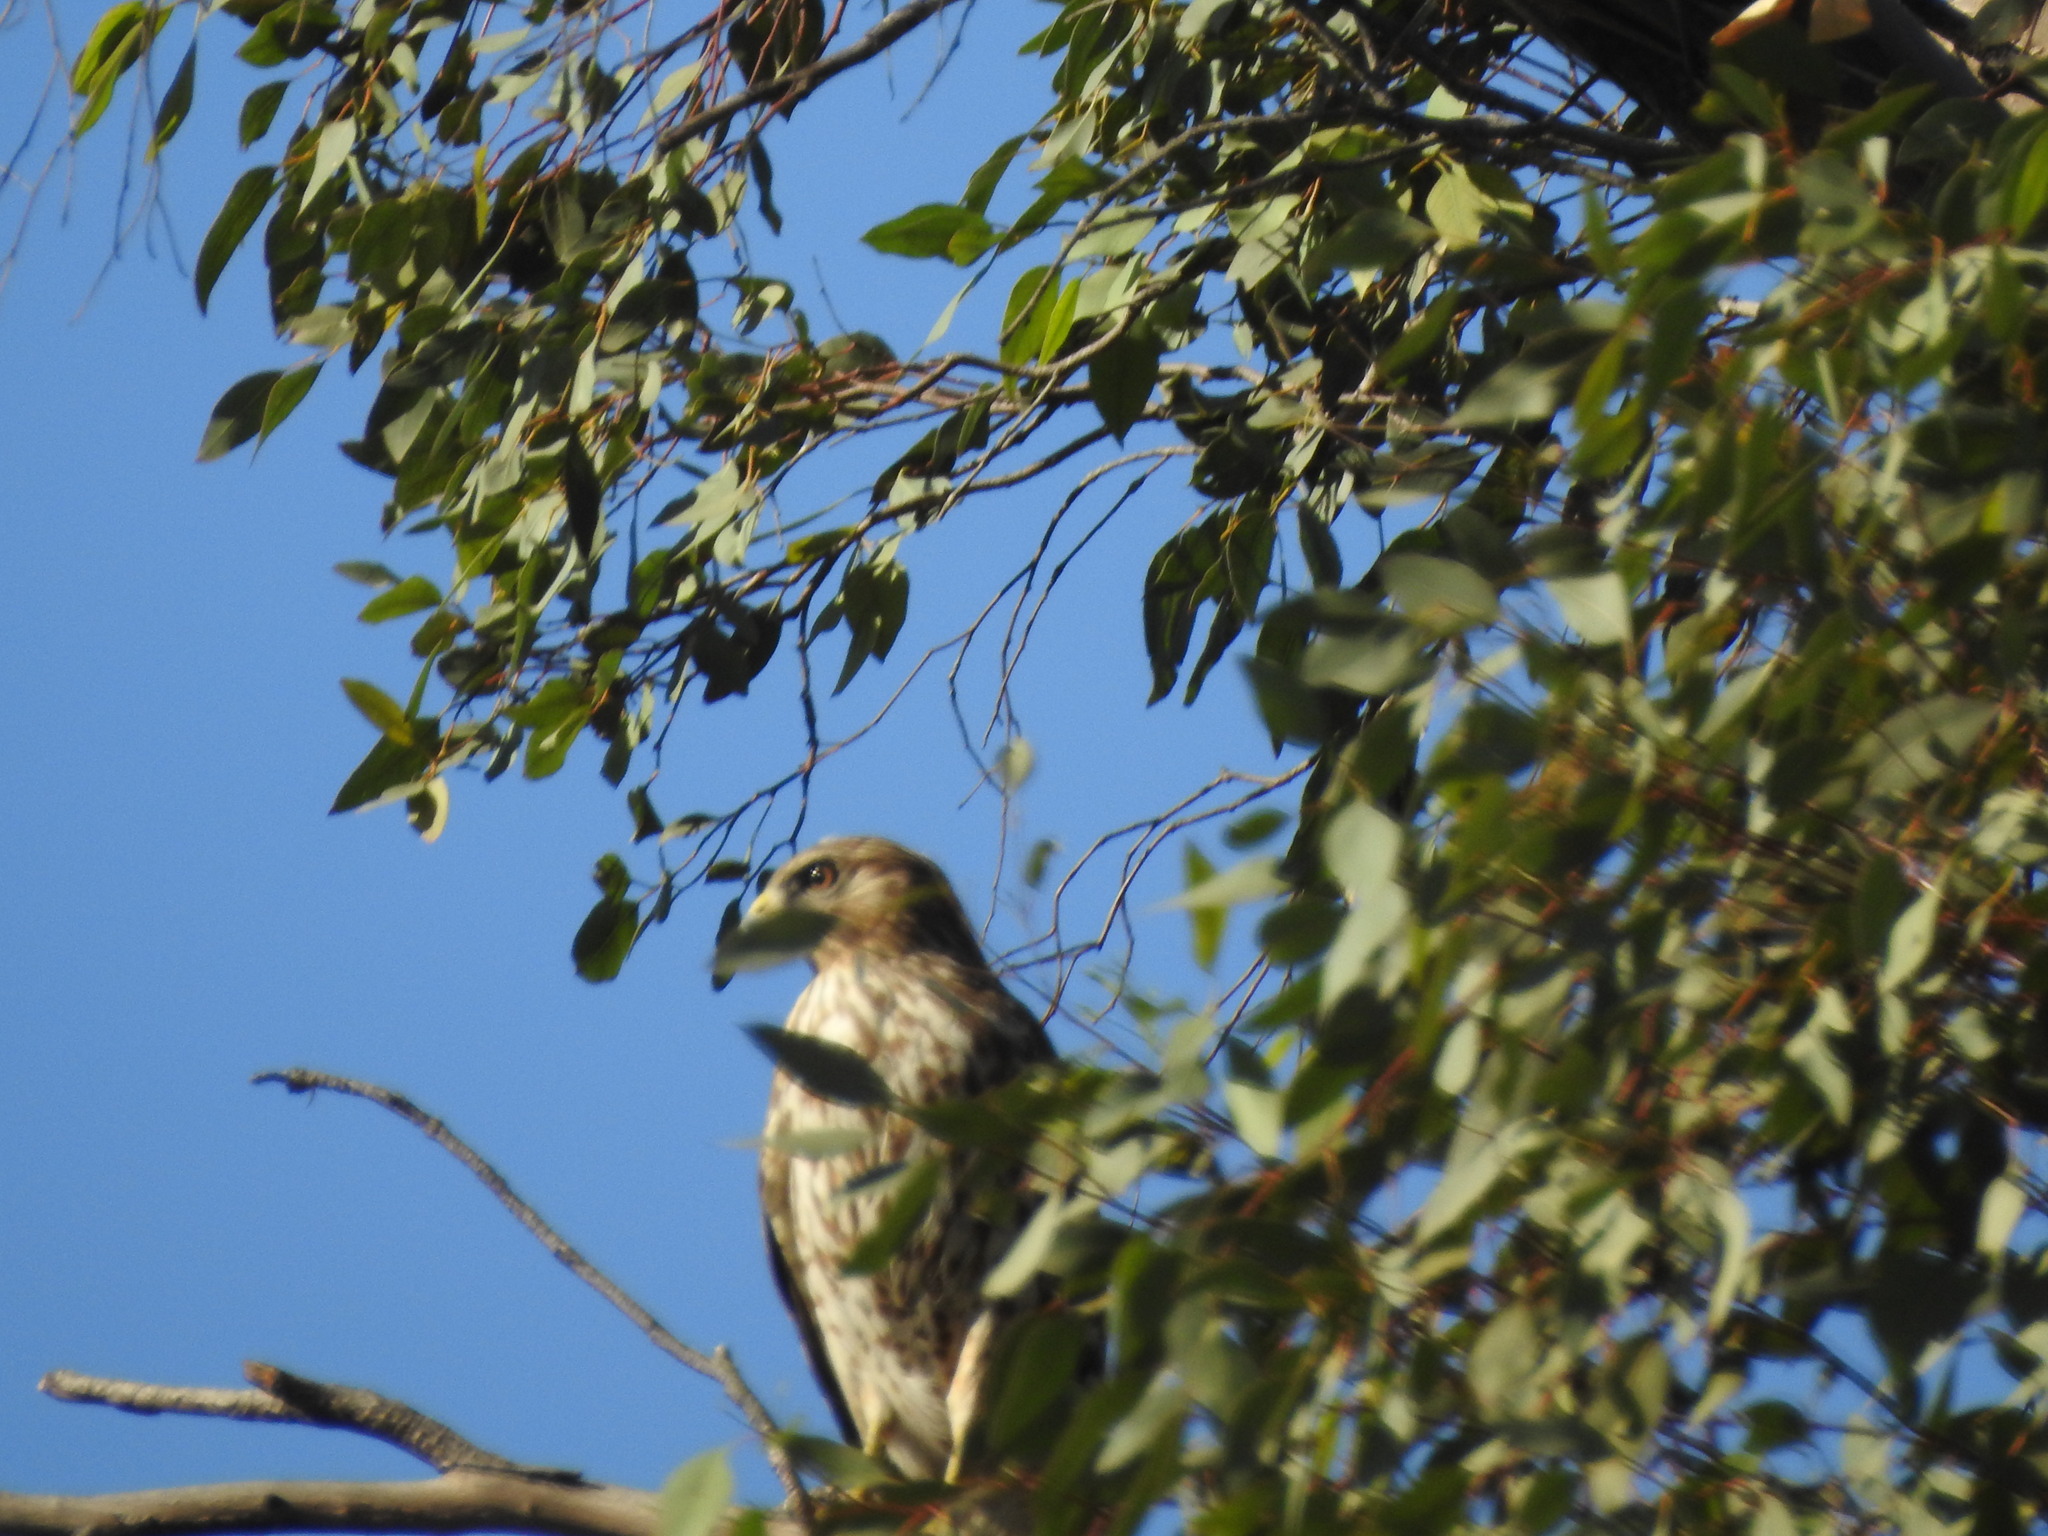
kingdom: Animalia
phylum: Chordata
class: Aves
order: Accipitriformes
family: Accipitridae
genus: Buteo
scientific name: Buteo lineatus
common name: Red-shouldered hawk
